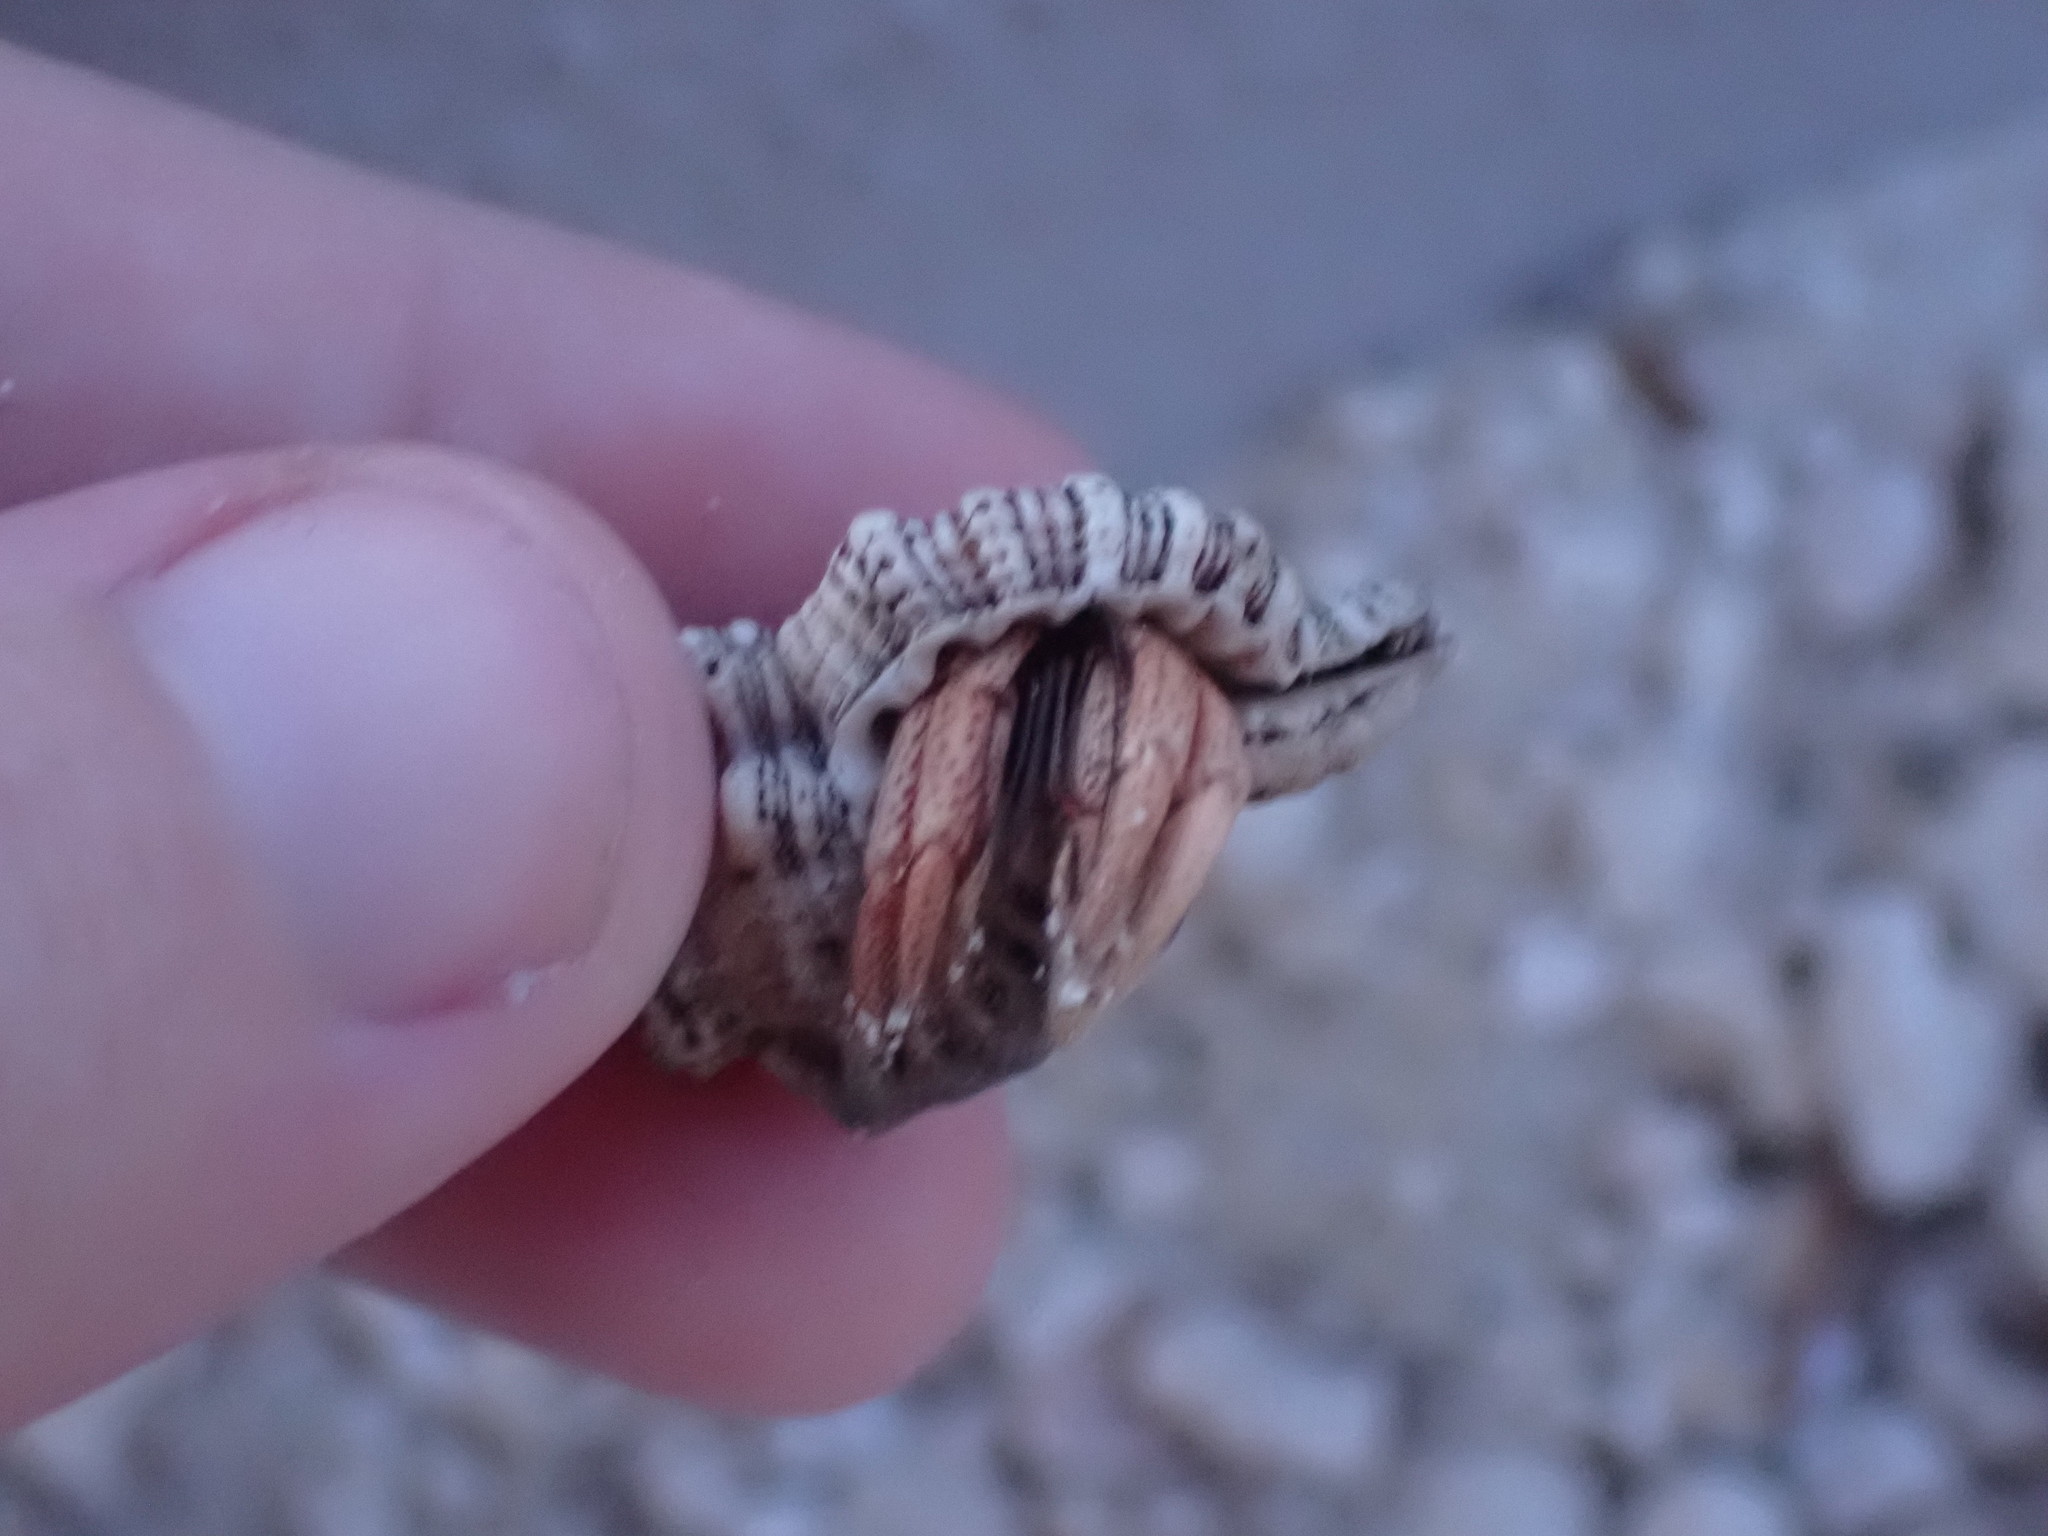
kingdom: Animalia
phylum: Arthropoda
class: Malacostraca
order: Decapoda
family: Coenobitidae
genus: Coenobita
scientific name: Coenobita clypeatus
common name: Caribbean hermit crab
